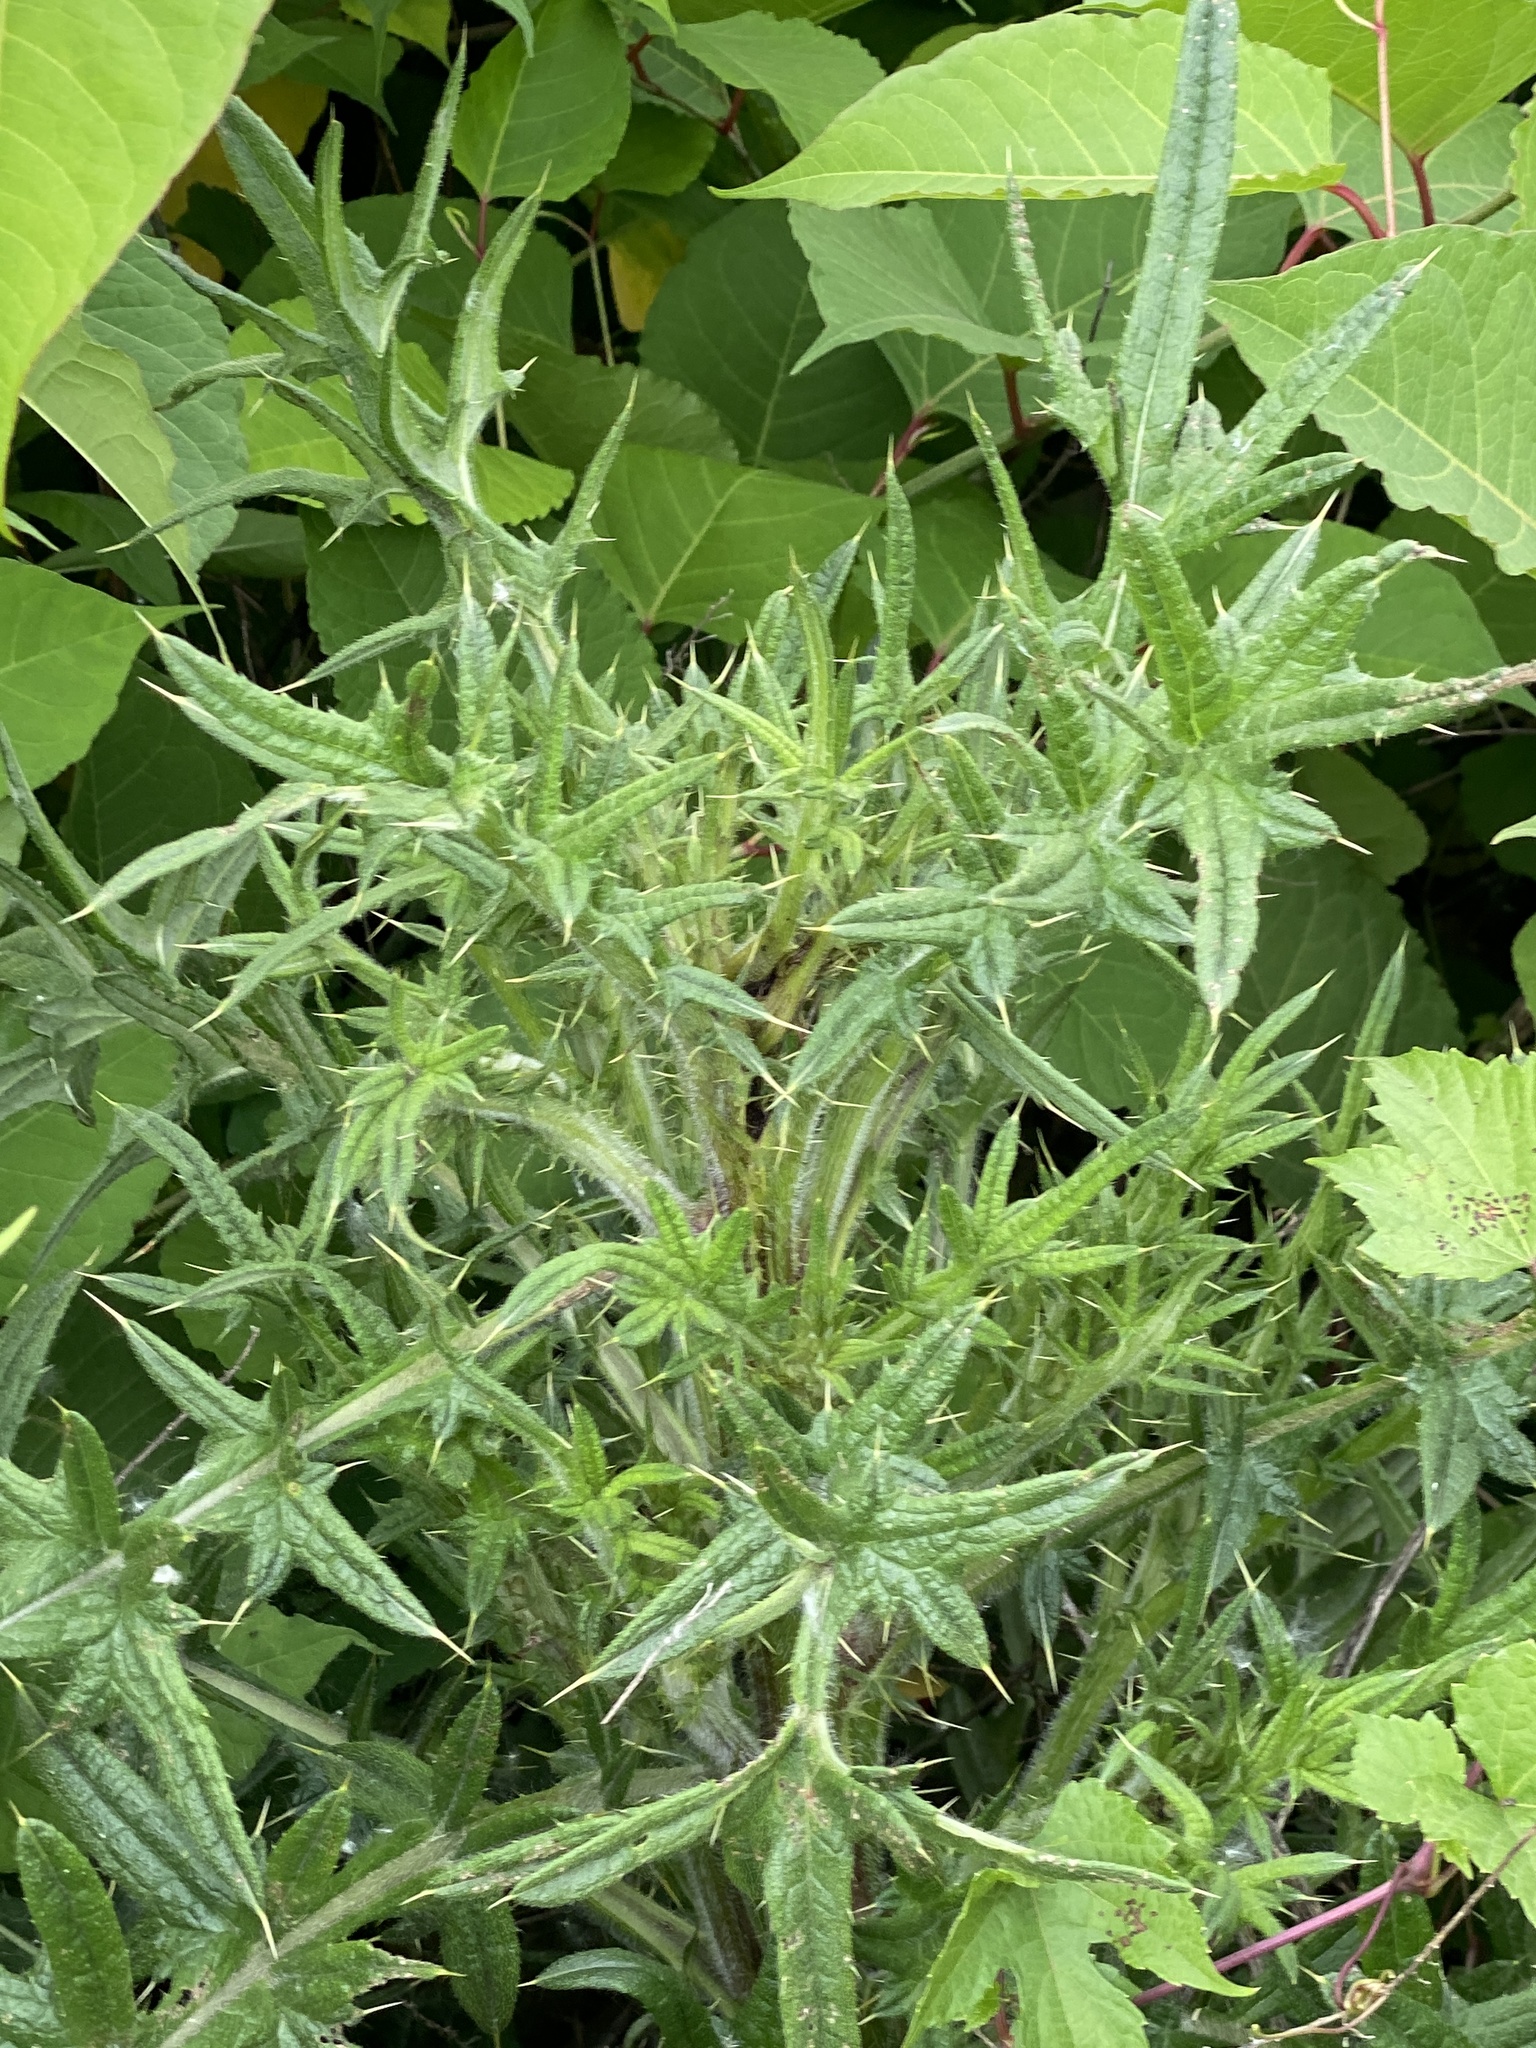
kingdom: Plantae
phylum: Tracheophyta
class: Magnoliopsida
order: Asterales
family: Asteraceae
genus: Cirsium
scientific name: Cirsium vulgare
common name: Bull thistle
